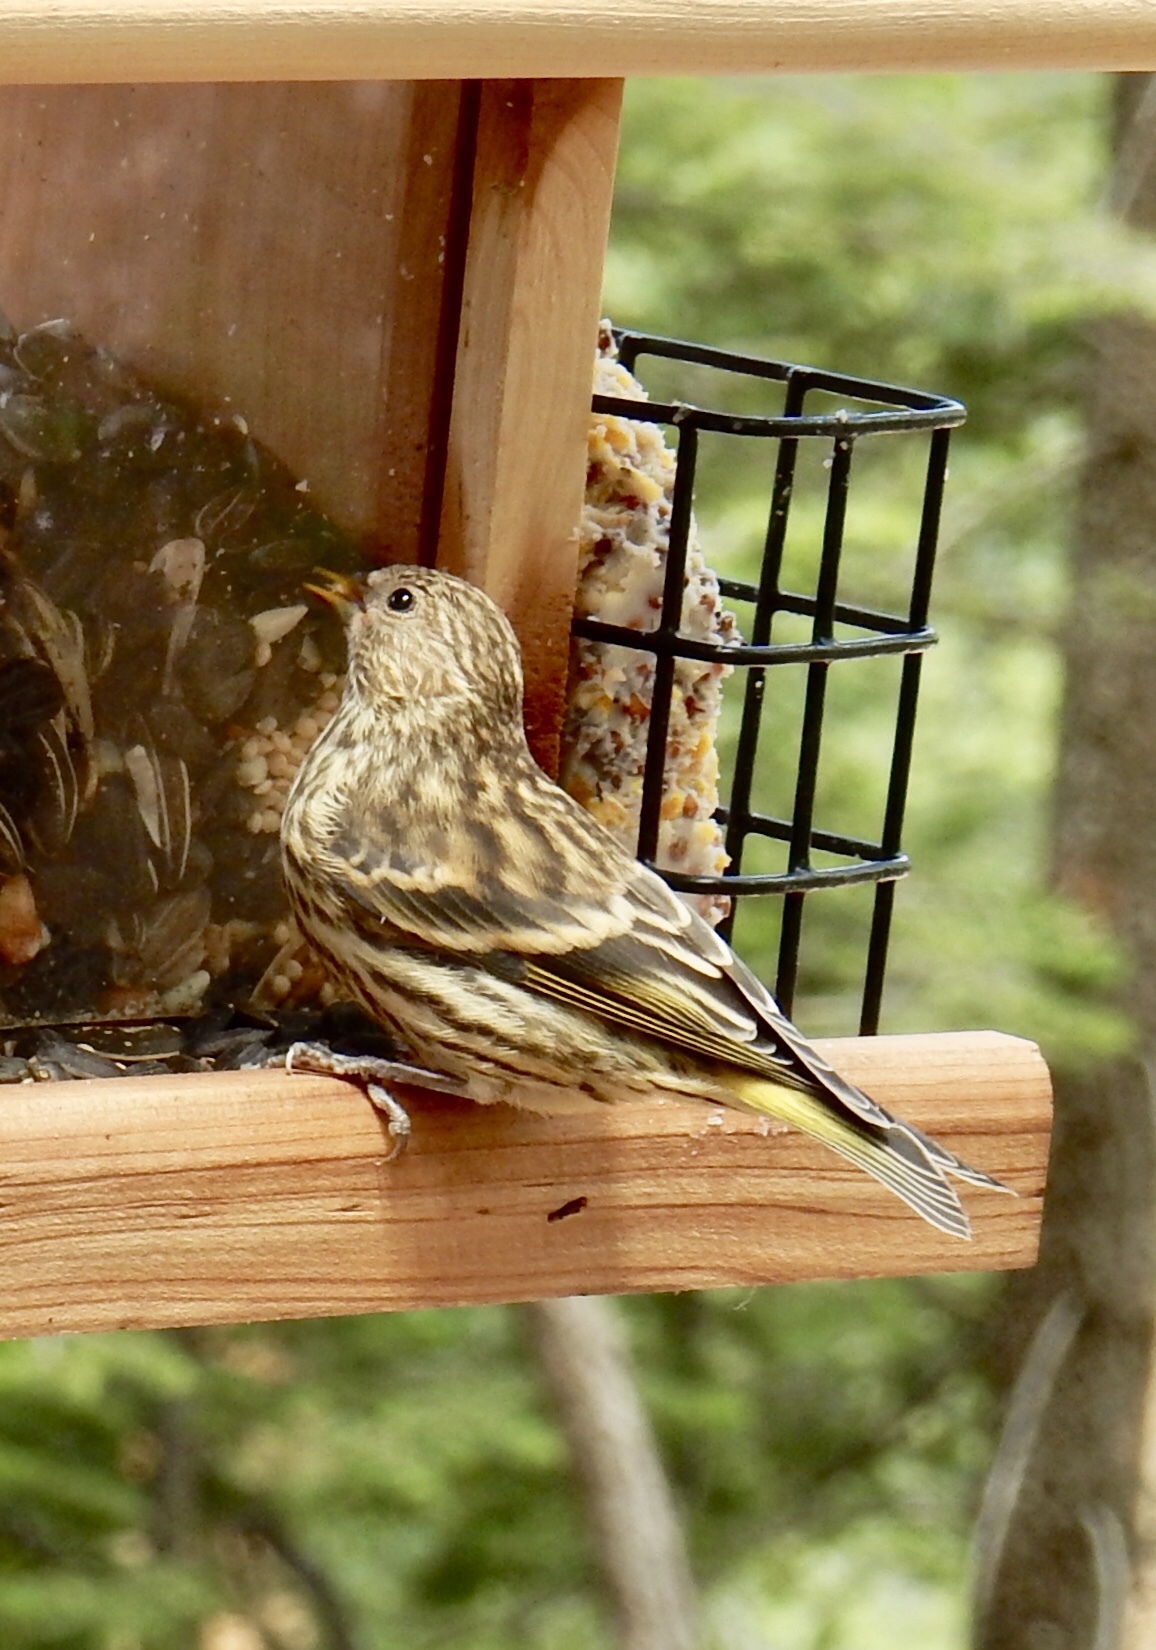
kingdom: Animalia
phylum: Chordata
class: Aves
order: Passeriformes
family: Fringillidae
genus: Spinus
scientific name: Spinus pinus
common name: Pine siskin
